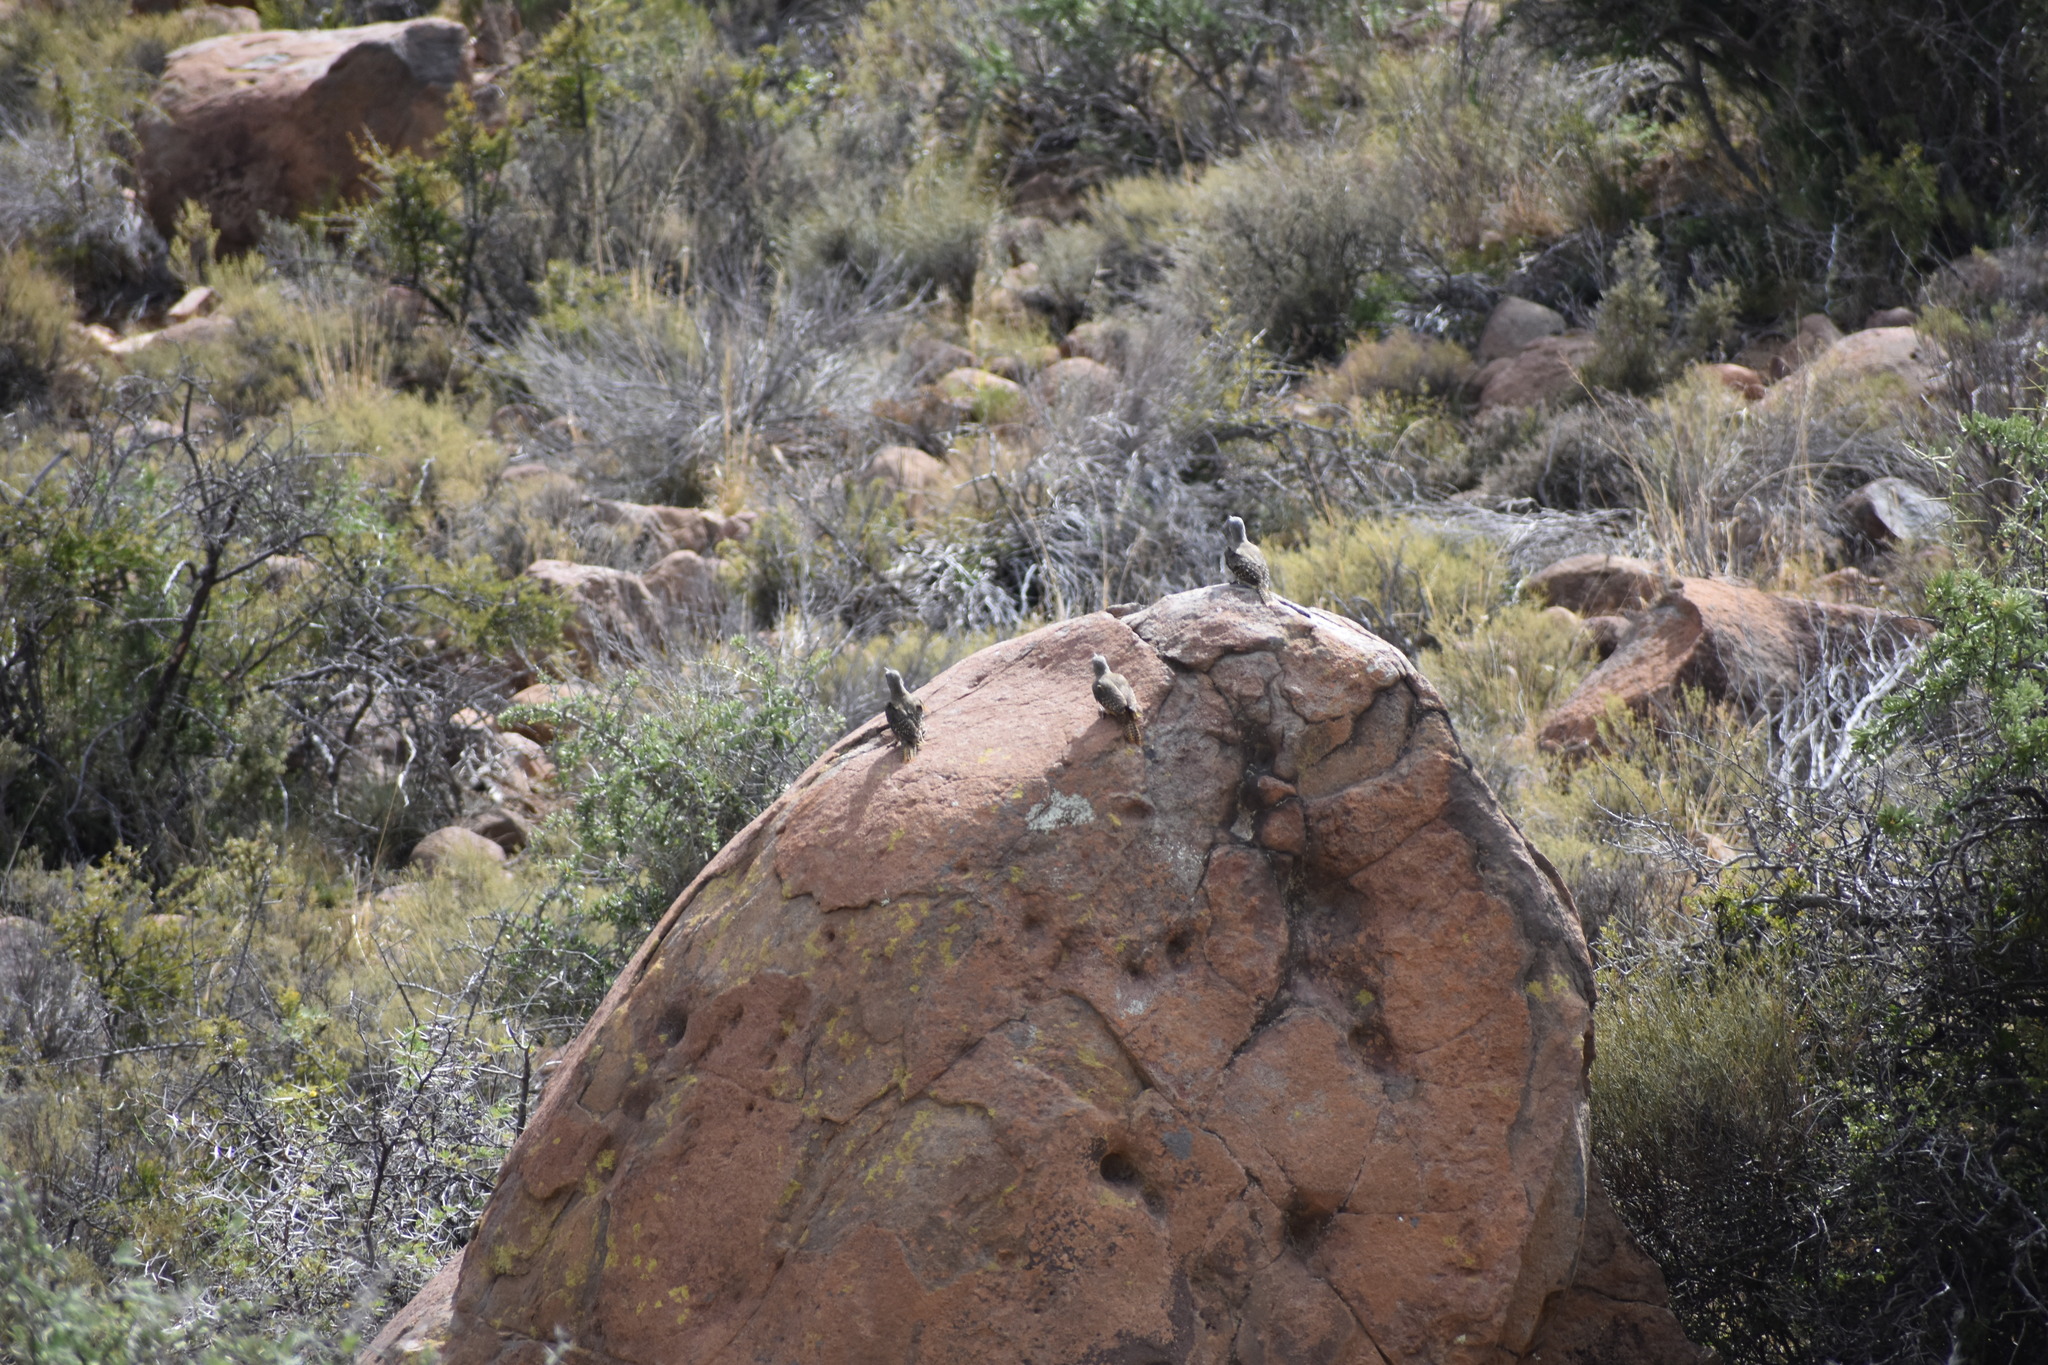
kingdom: Animalia
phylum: Chordata
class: Aves
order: Piciformes
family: Picidae
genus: Geocolaptes
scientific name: Geocolaptes olivaceus
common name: Ground woodpecker
